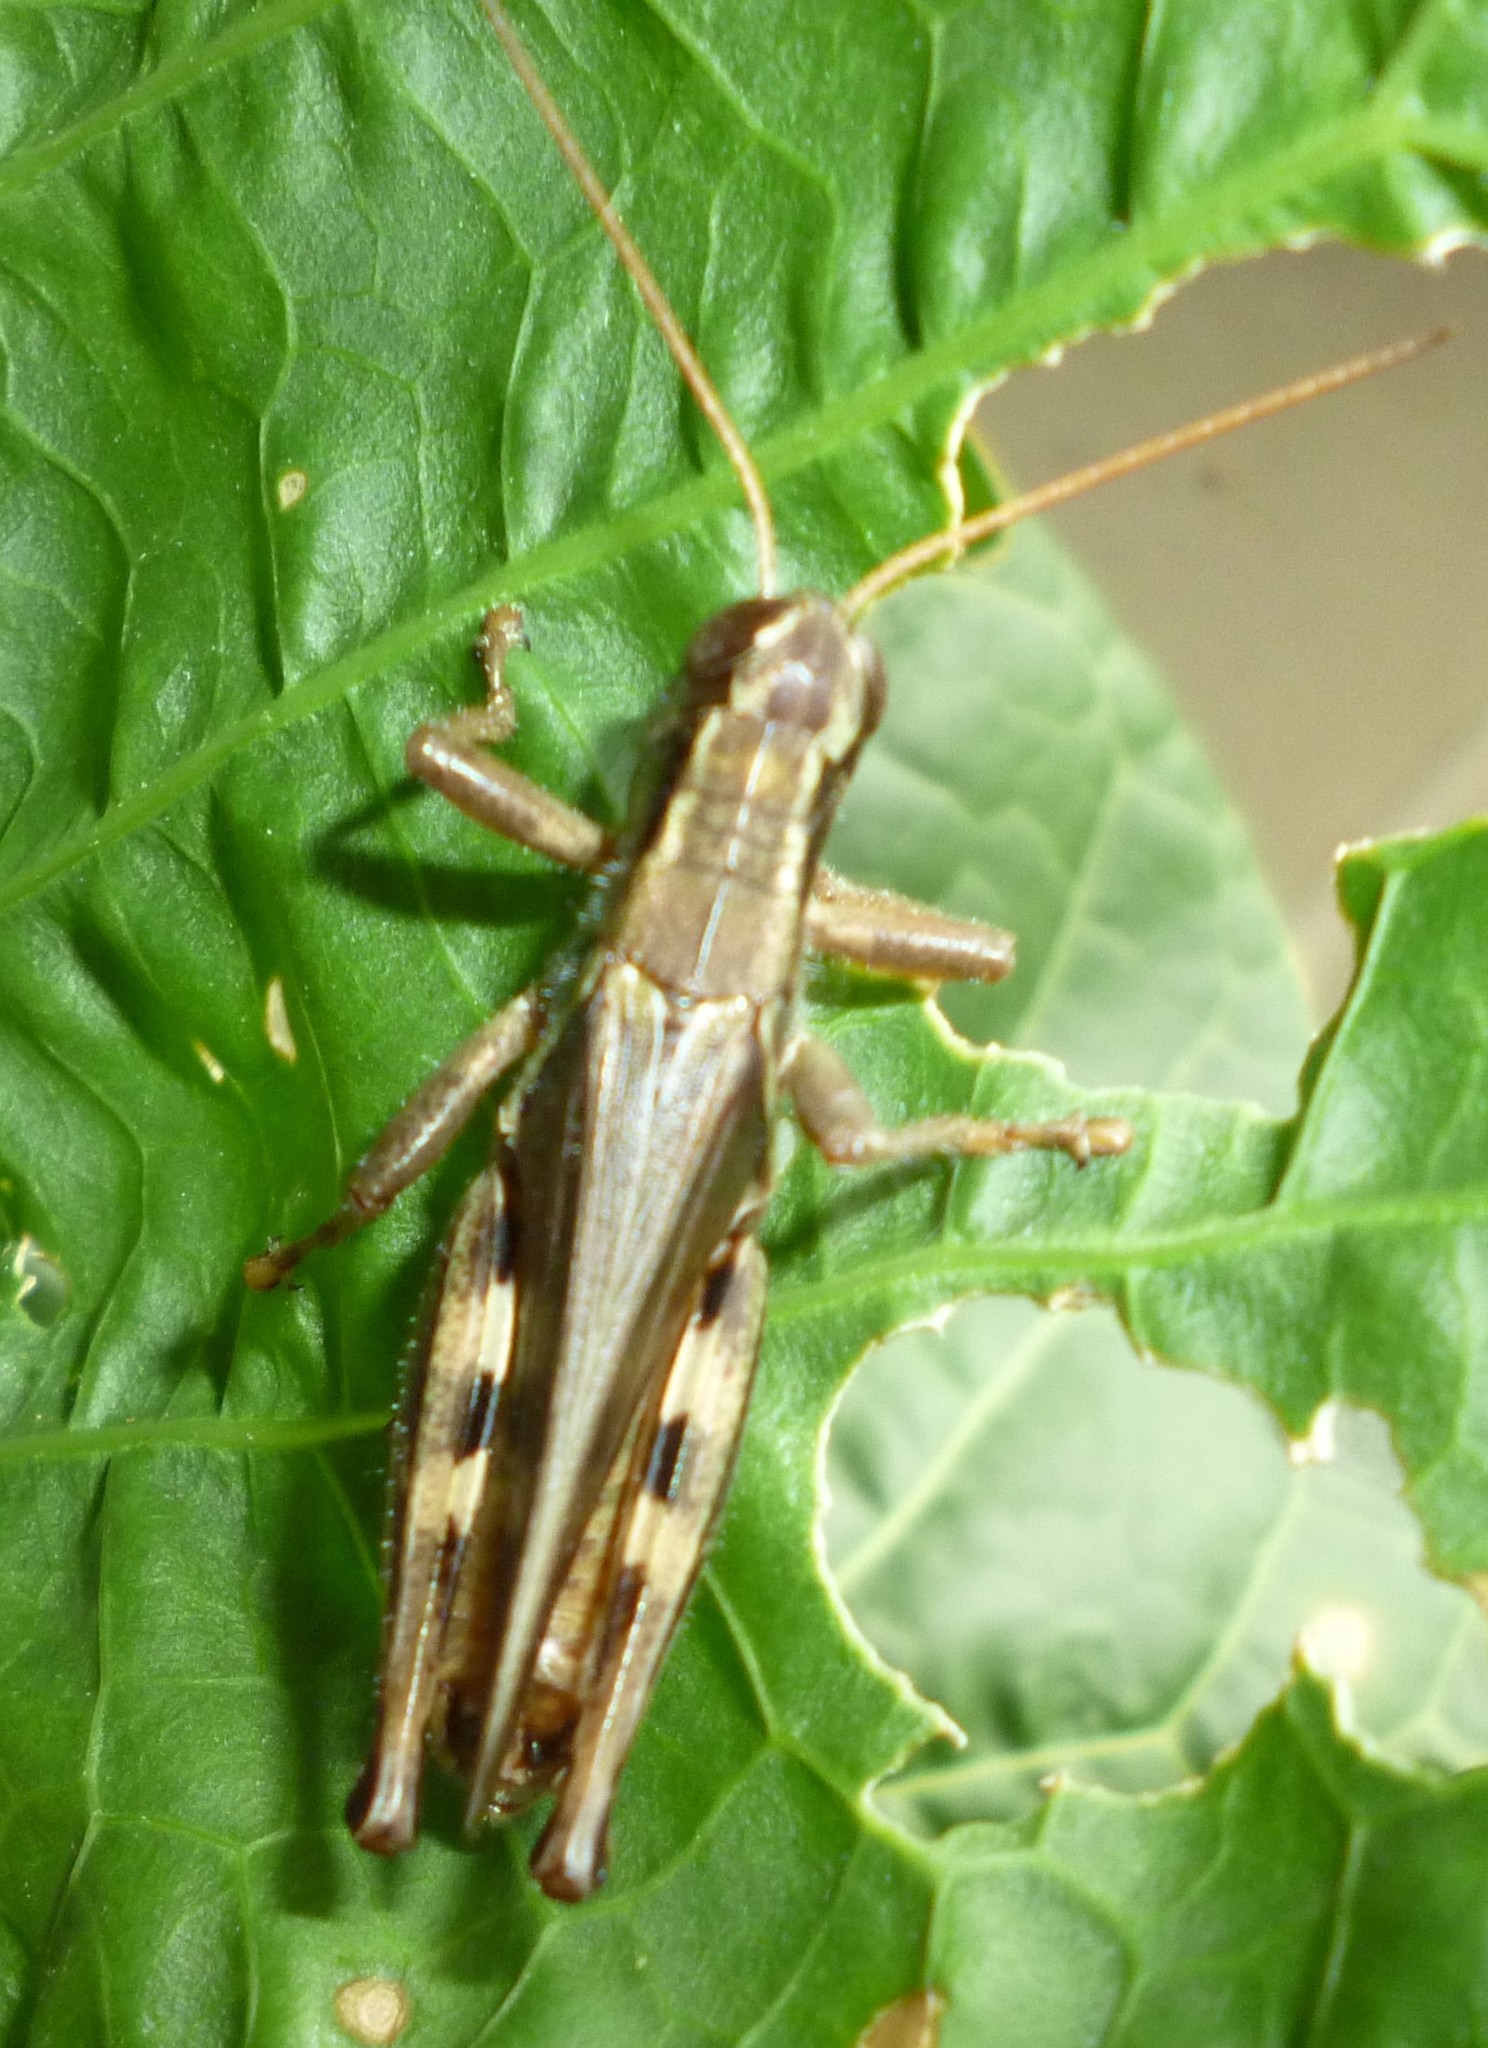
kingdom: Animalia
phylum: Arthropoda
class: Insecta
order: Orthoptera
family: Acrididae
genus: Melanoplus
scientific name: Melanoplus bivittatus
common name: Two-striped grasshopper
